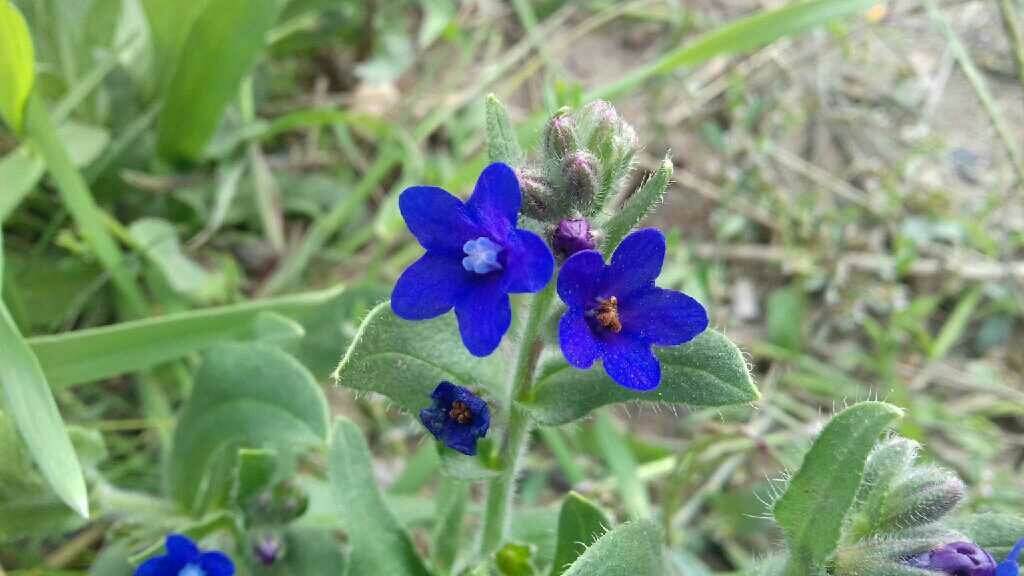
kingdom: Plantae
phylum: Tracheophyta
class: Magnoliopsida
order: Boraginales
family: Boraginaceae
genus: Anchusa
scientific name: Anchusa officinalis
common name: Alkanet
